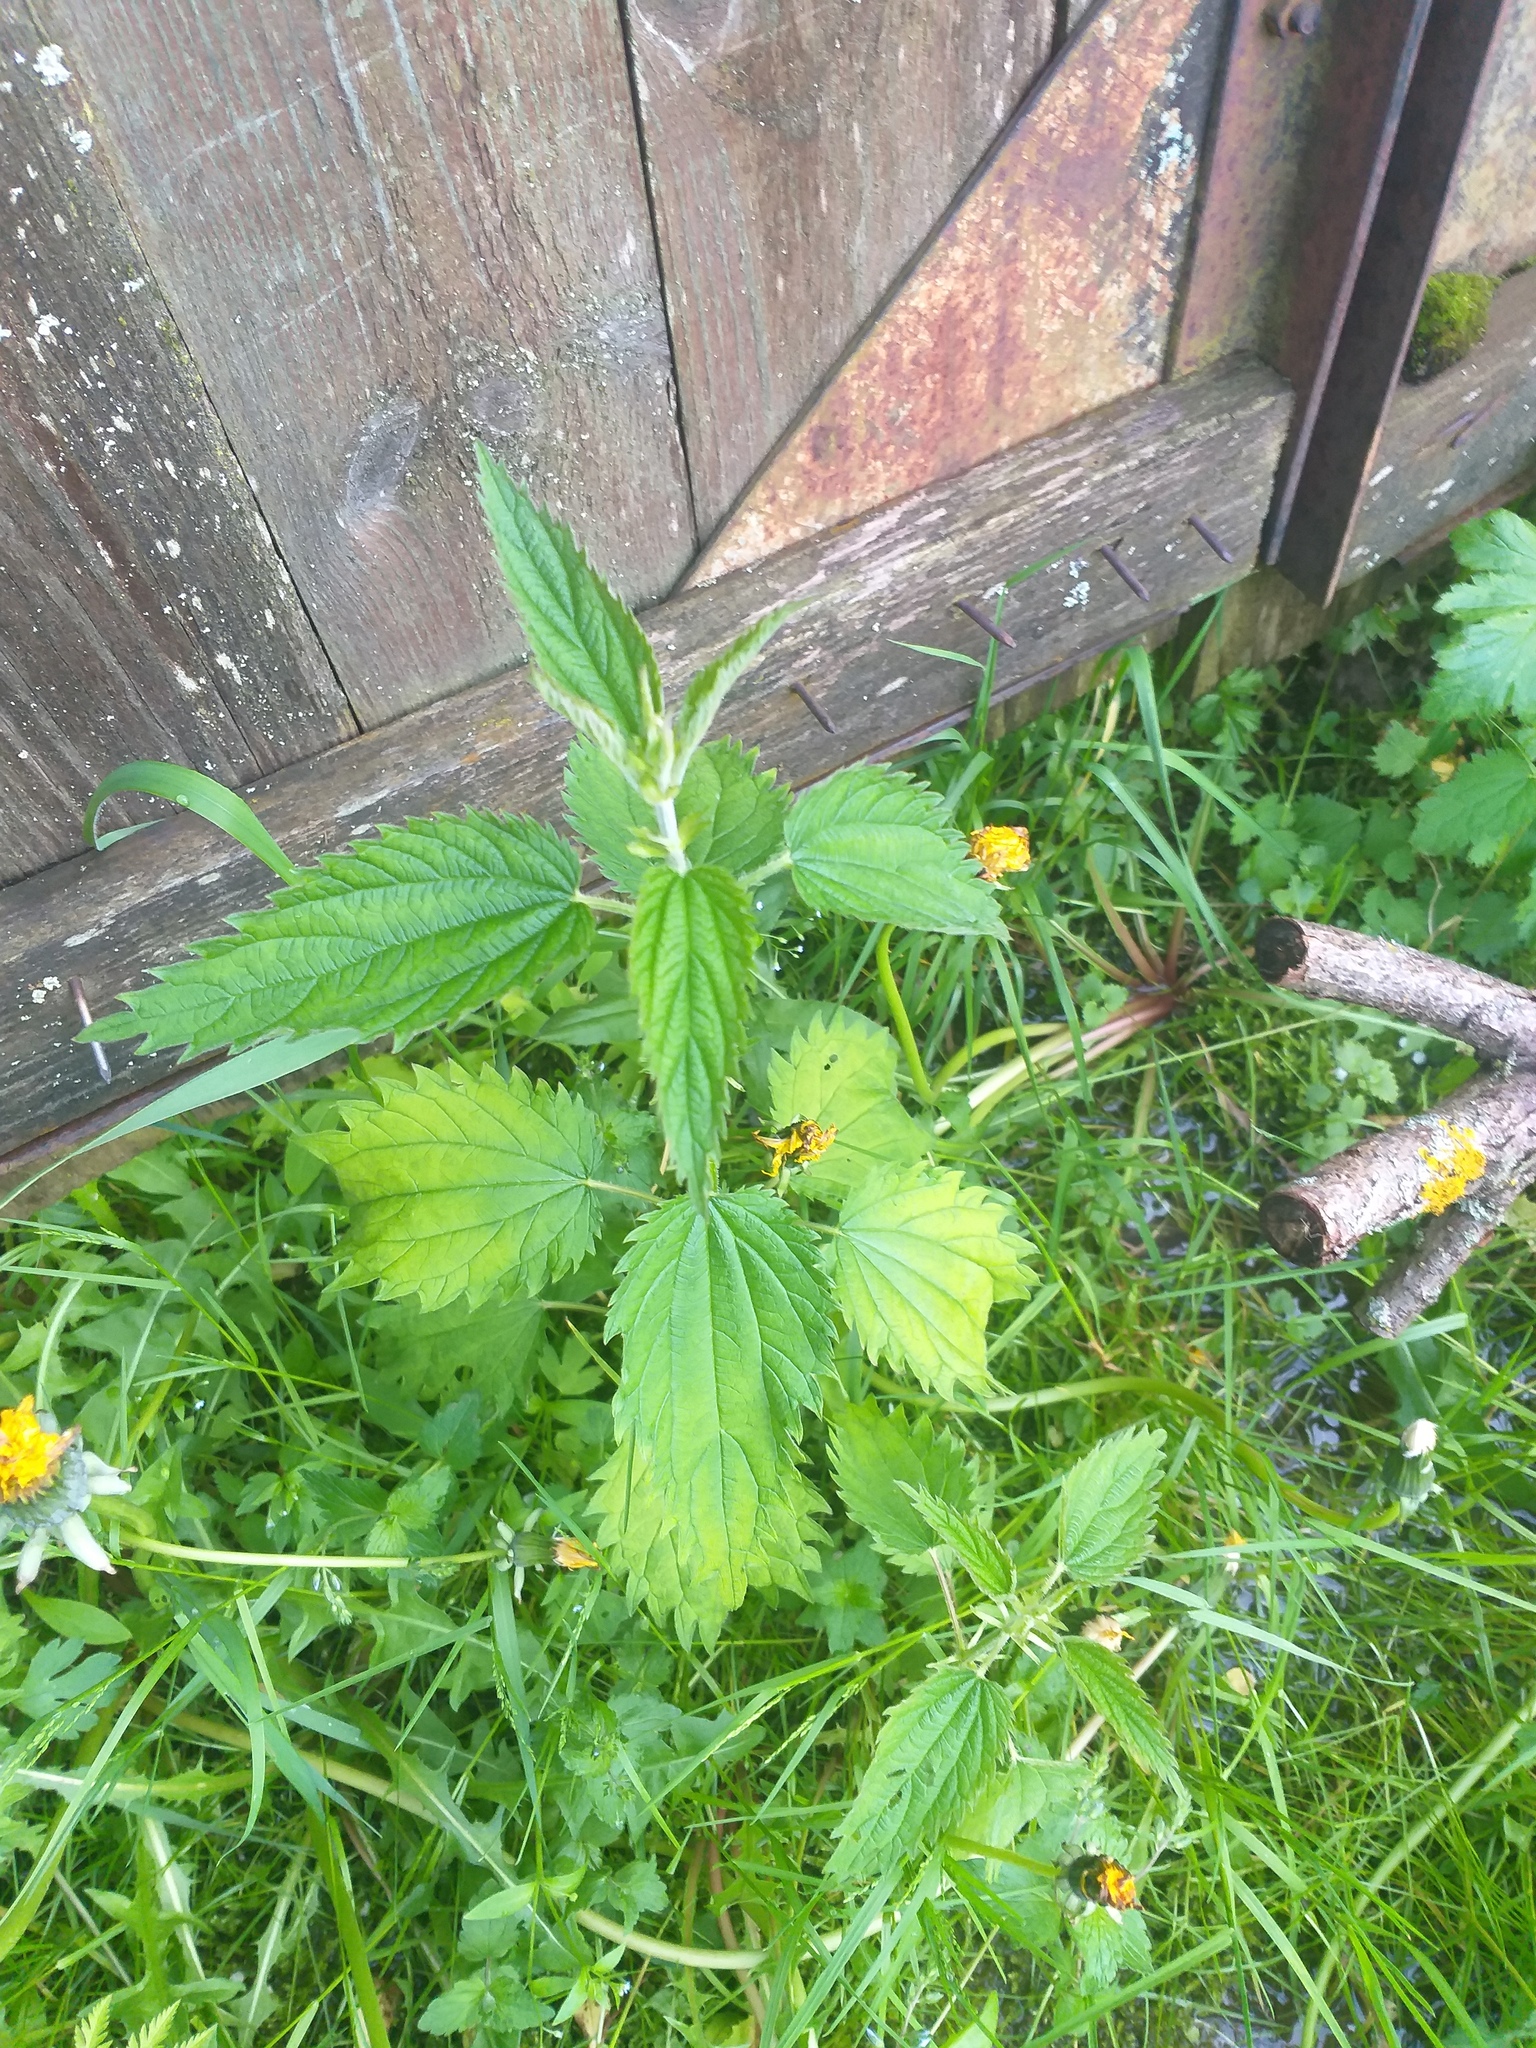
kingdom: Plantae
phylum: Tracheophyta
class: Magnoliopsida
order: Rosales
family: Urticaceae
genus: Urtica
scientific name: Urtica dioica
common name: Common nettle
